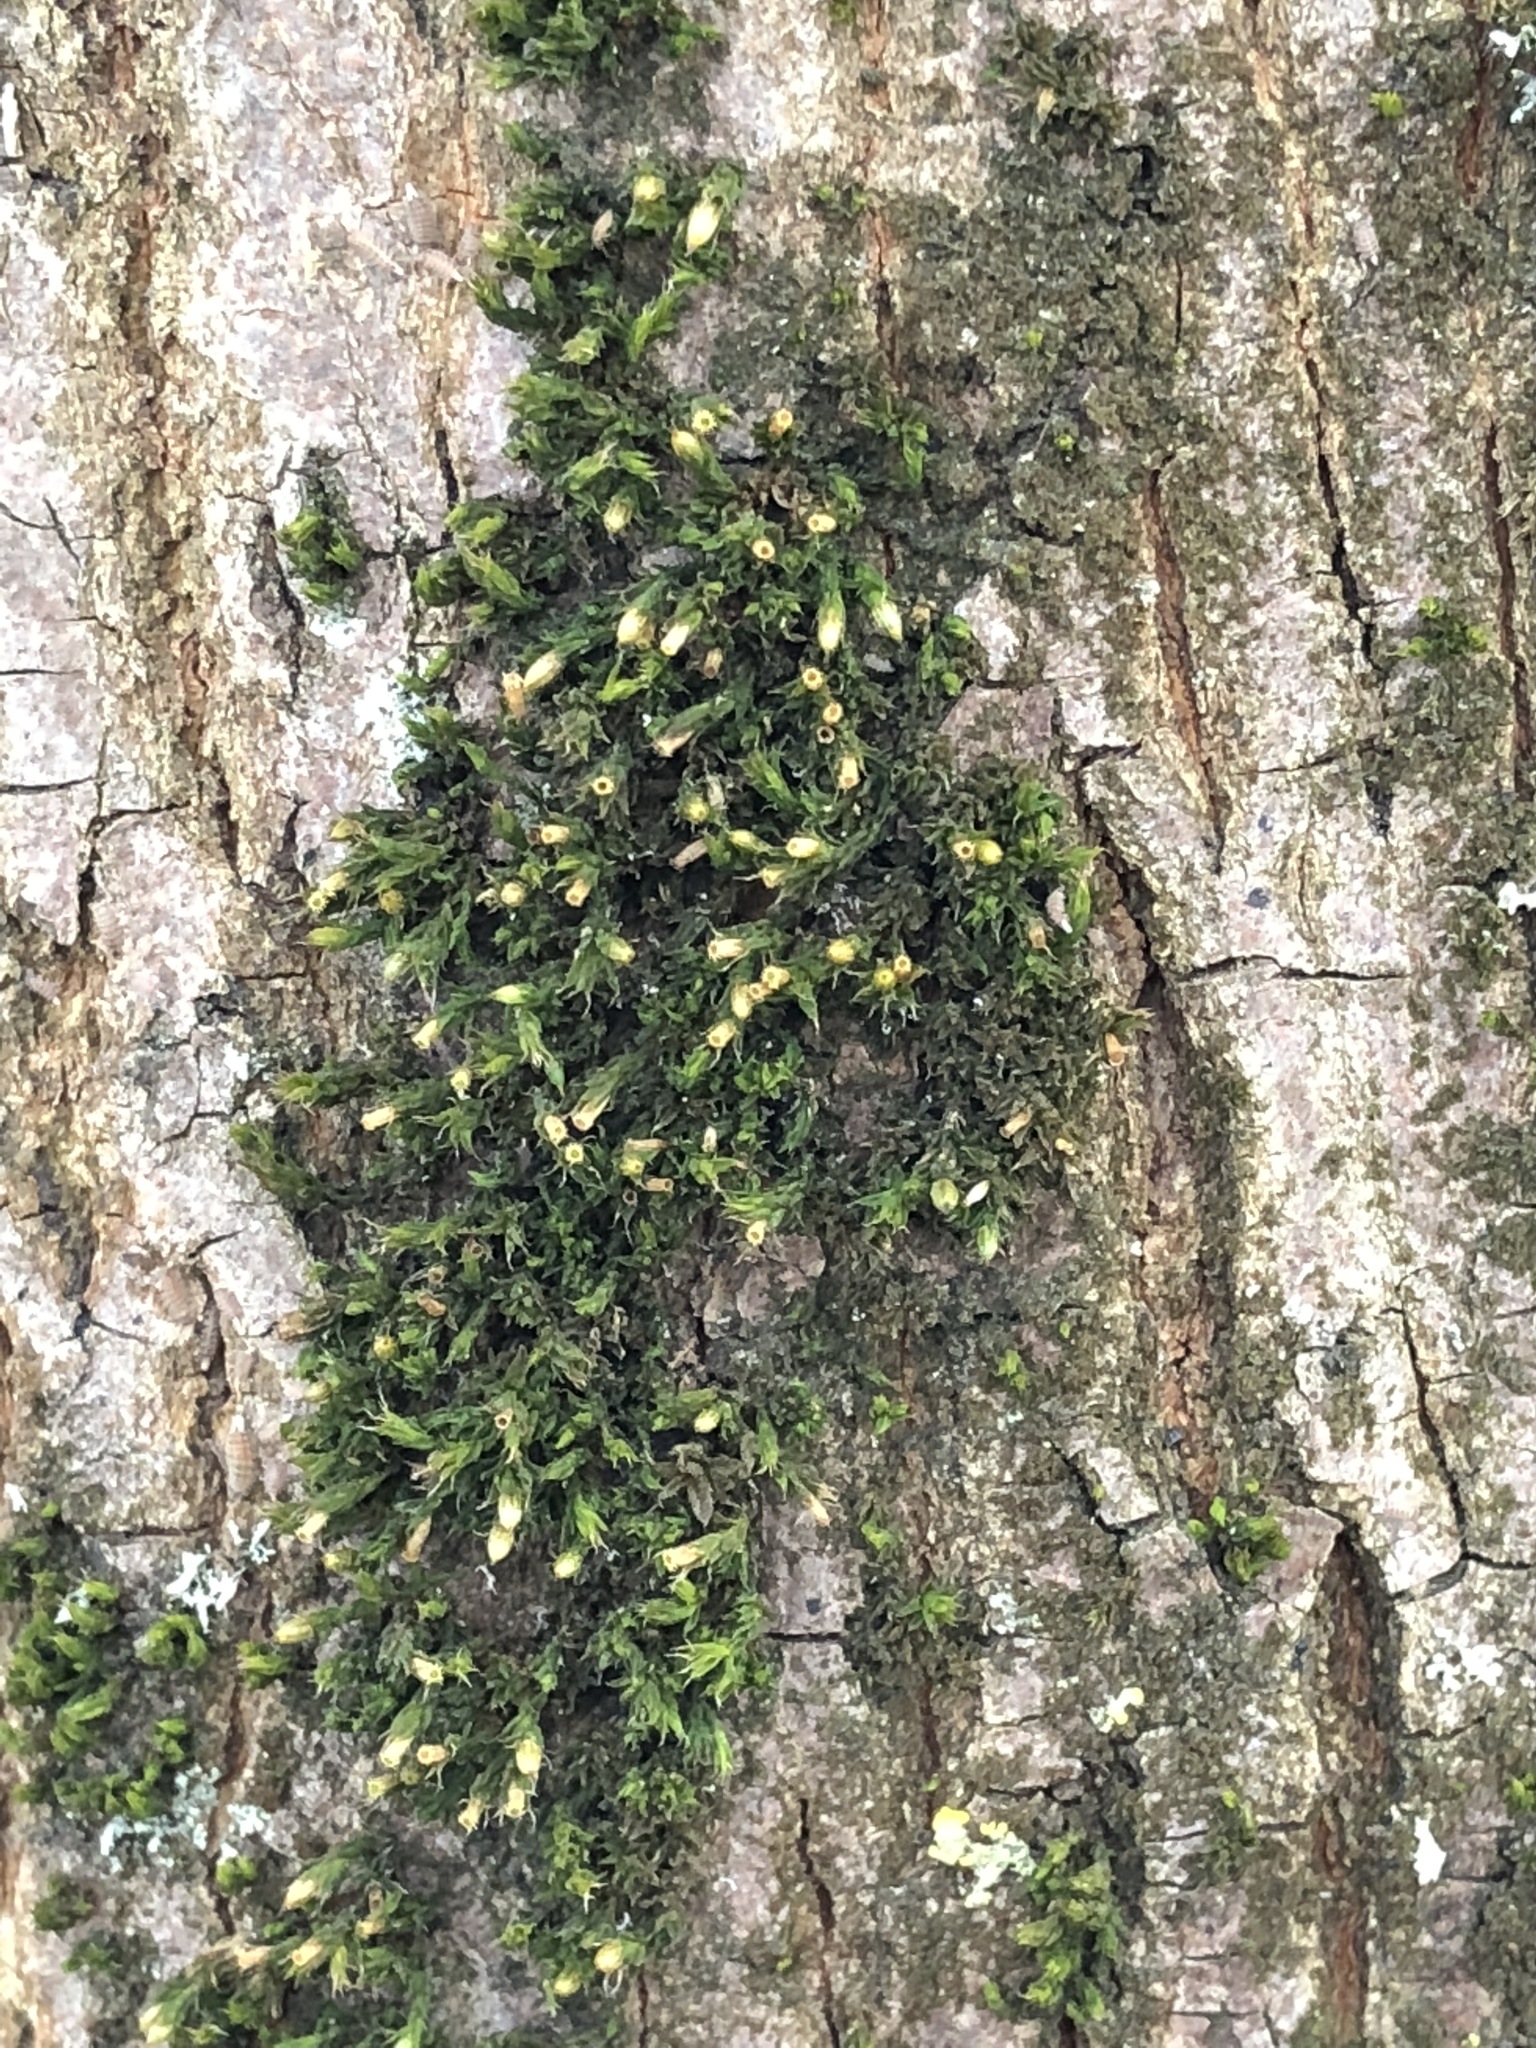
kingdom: Plantae
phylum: Bryophyta
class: Bryopsida
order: Orthotrichales
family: Orthotrichaceae
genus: Orthotrichum
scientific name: Orthotrichum diaphanum
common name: White-tipped bristle-moss
